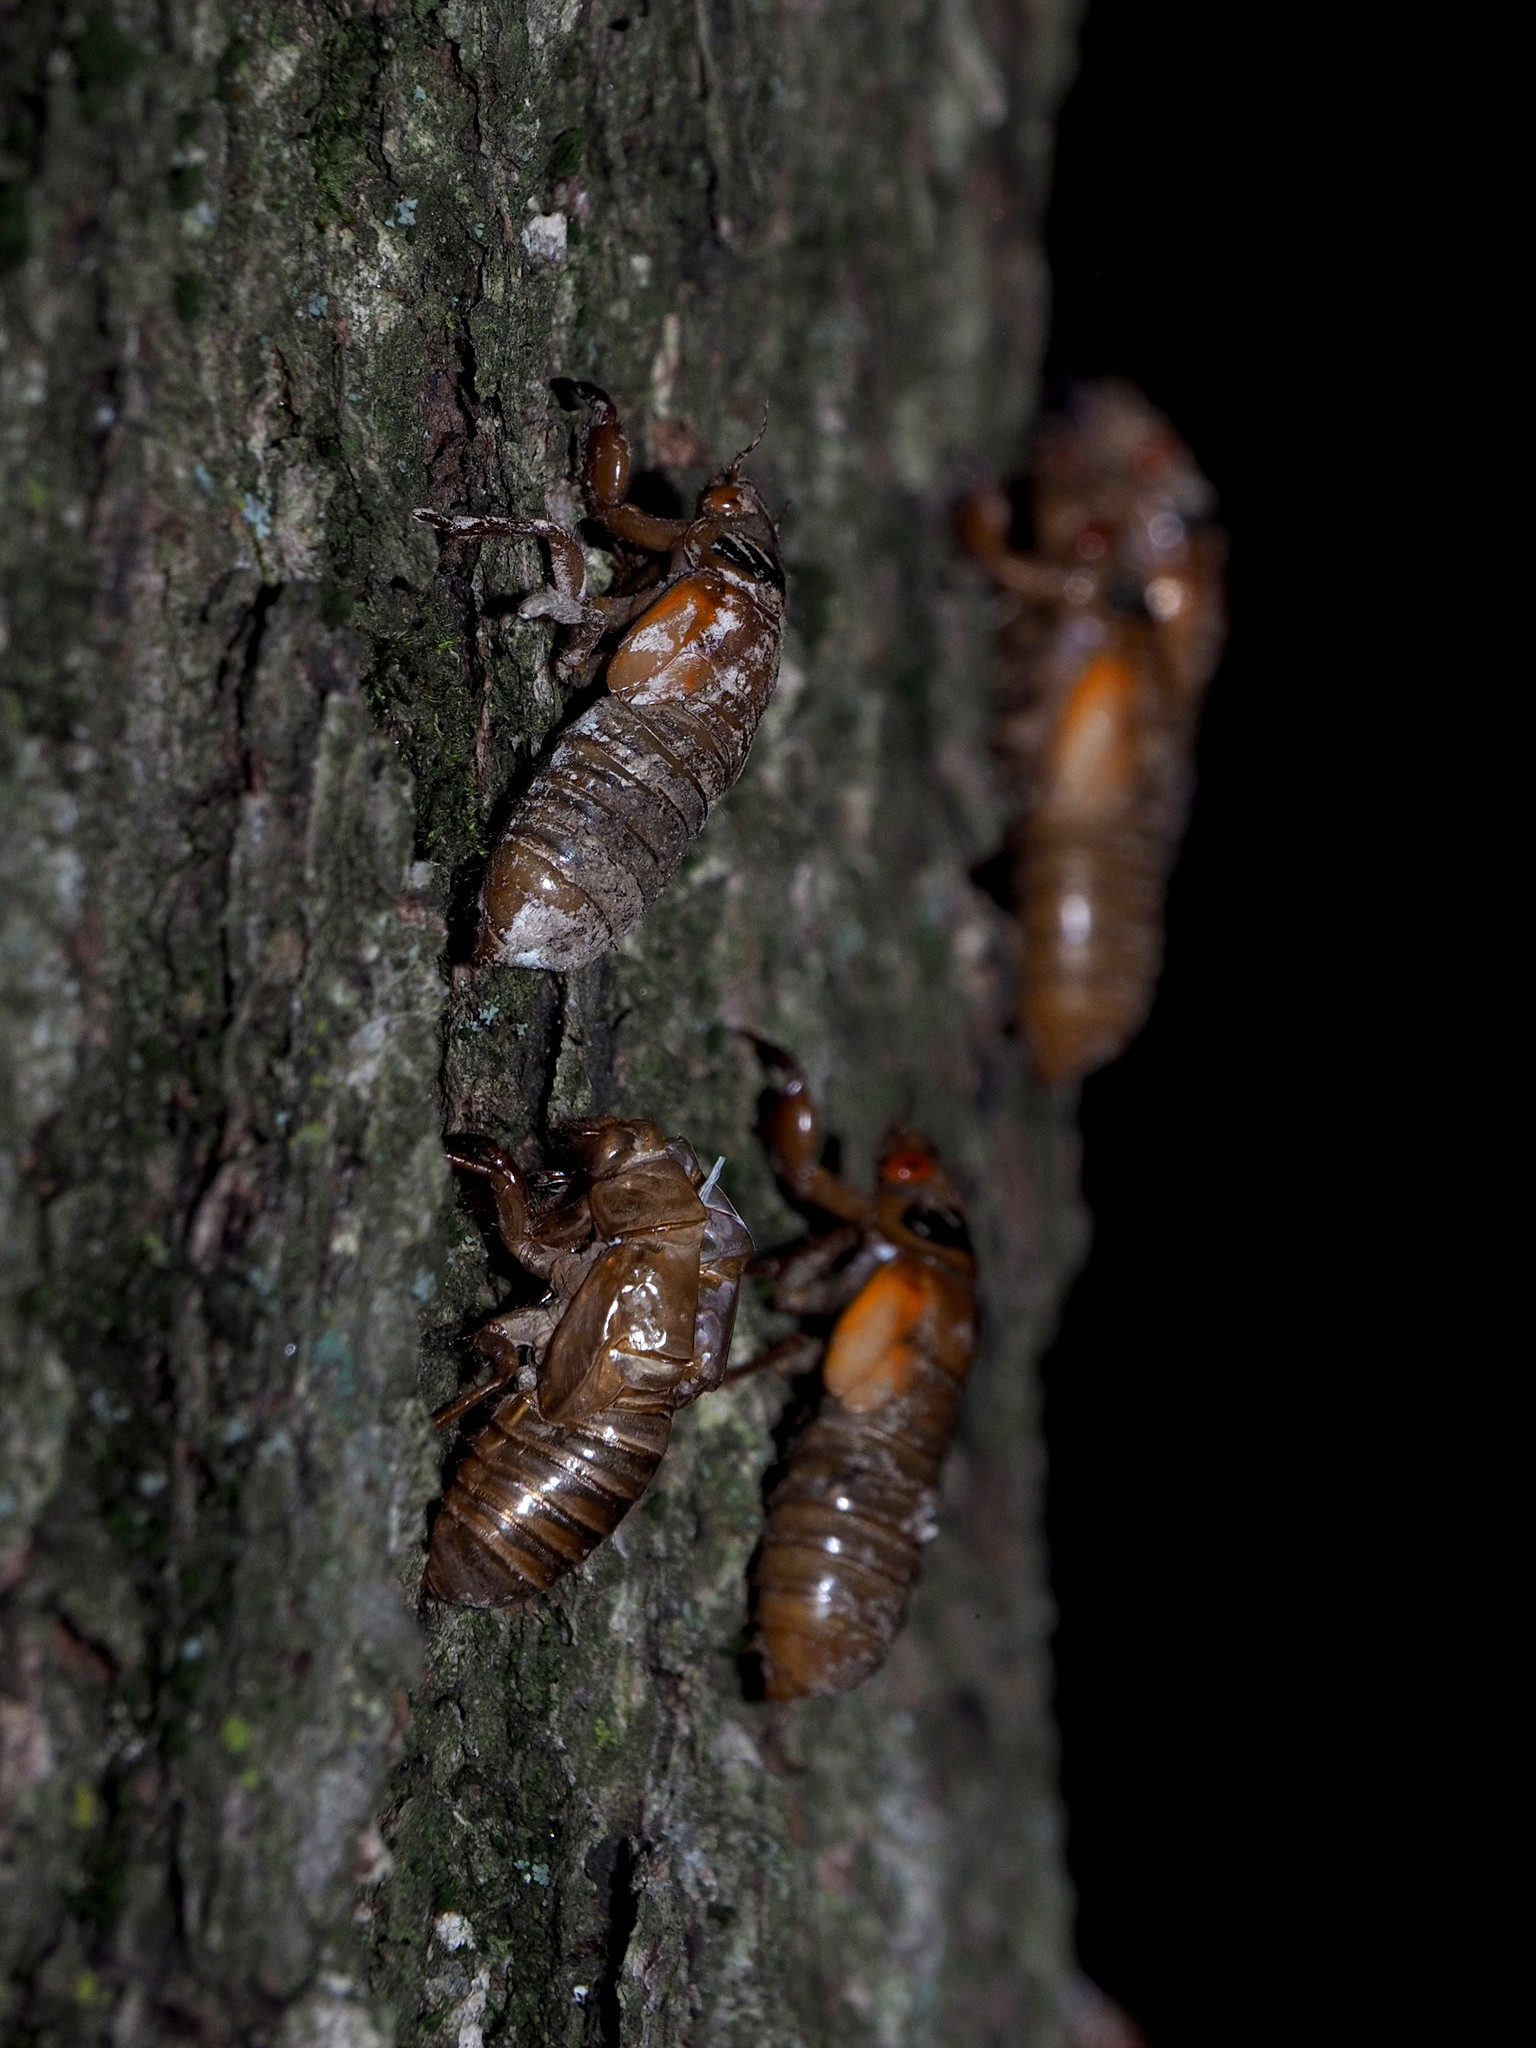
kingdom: Animalia
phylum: Arthropoda
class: Insecta
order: Hemiptera
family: Cicadidae
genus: Magicicada
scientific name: Magicicada
